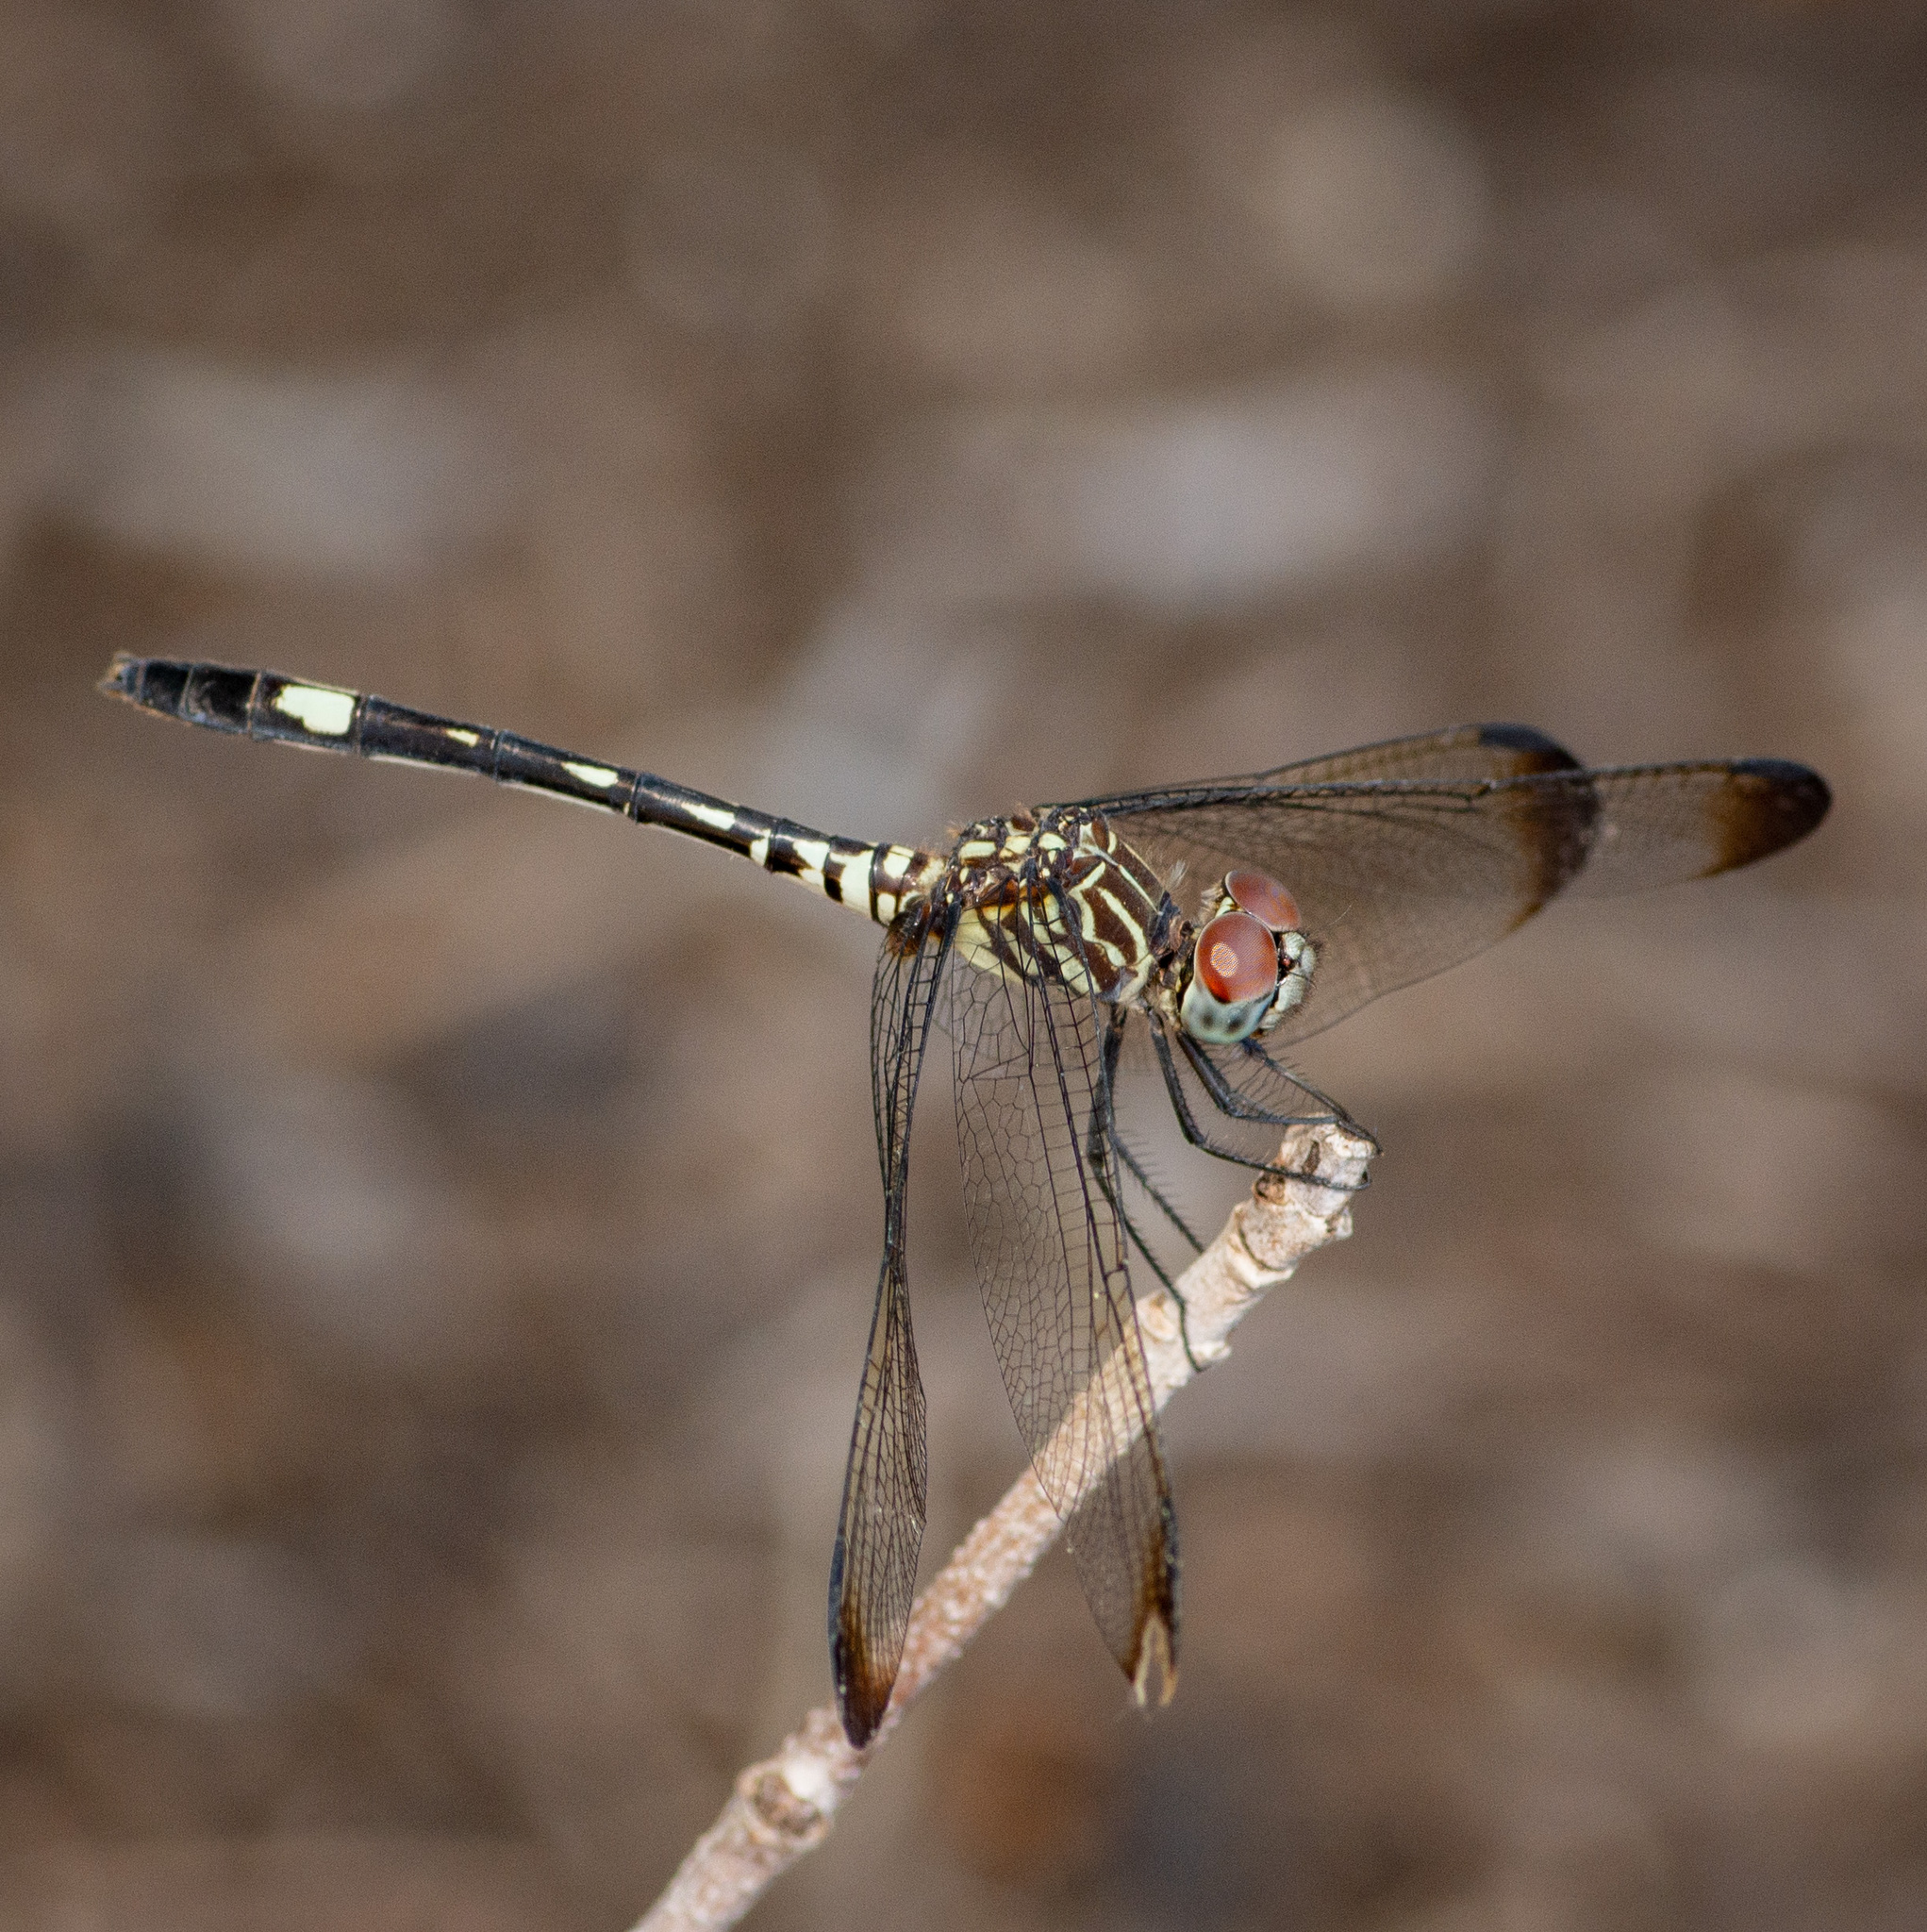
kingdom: Animalia
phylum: Arthropoda
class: Insecta
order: Odonata
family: Libellulidae
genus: Dythemis
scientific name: Dythemis velox
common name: Swift setwing
